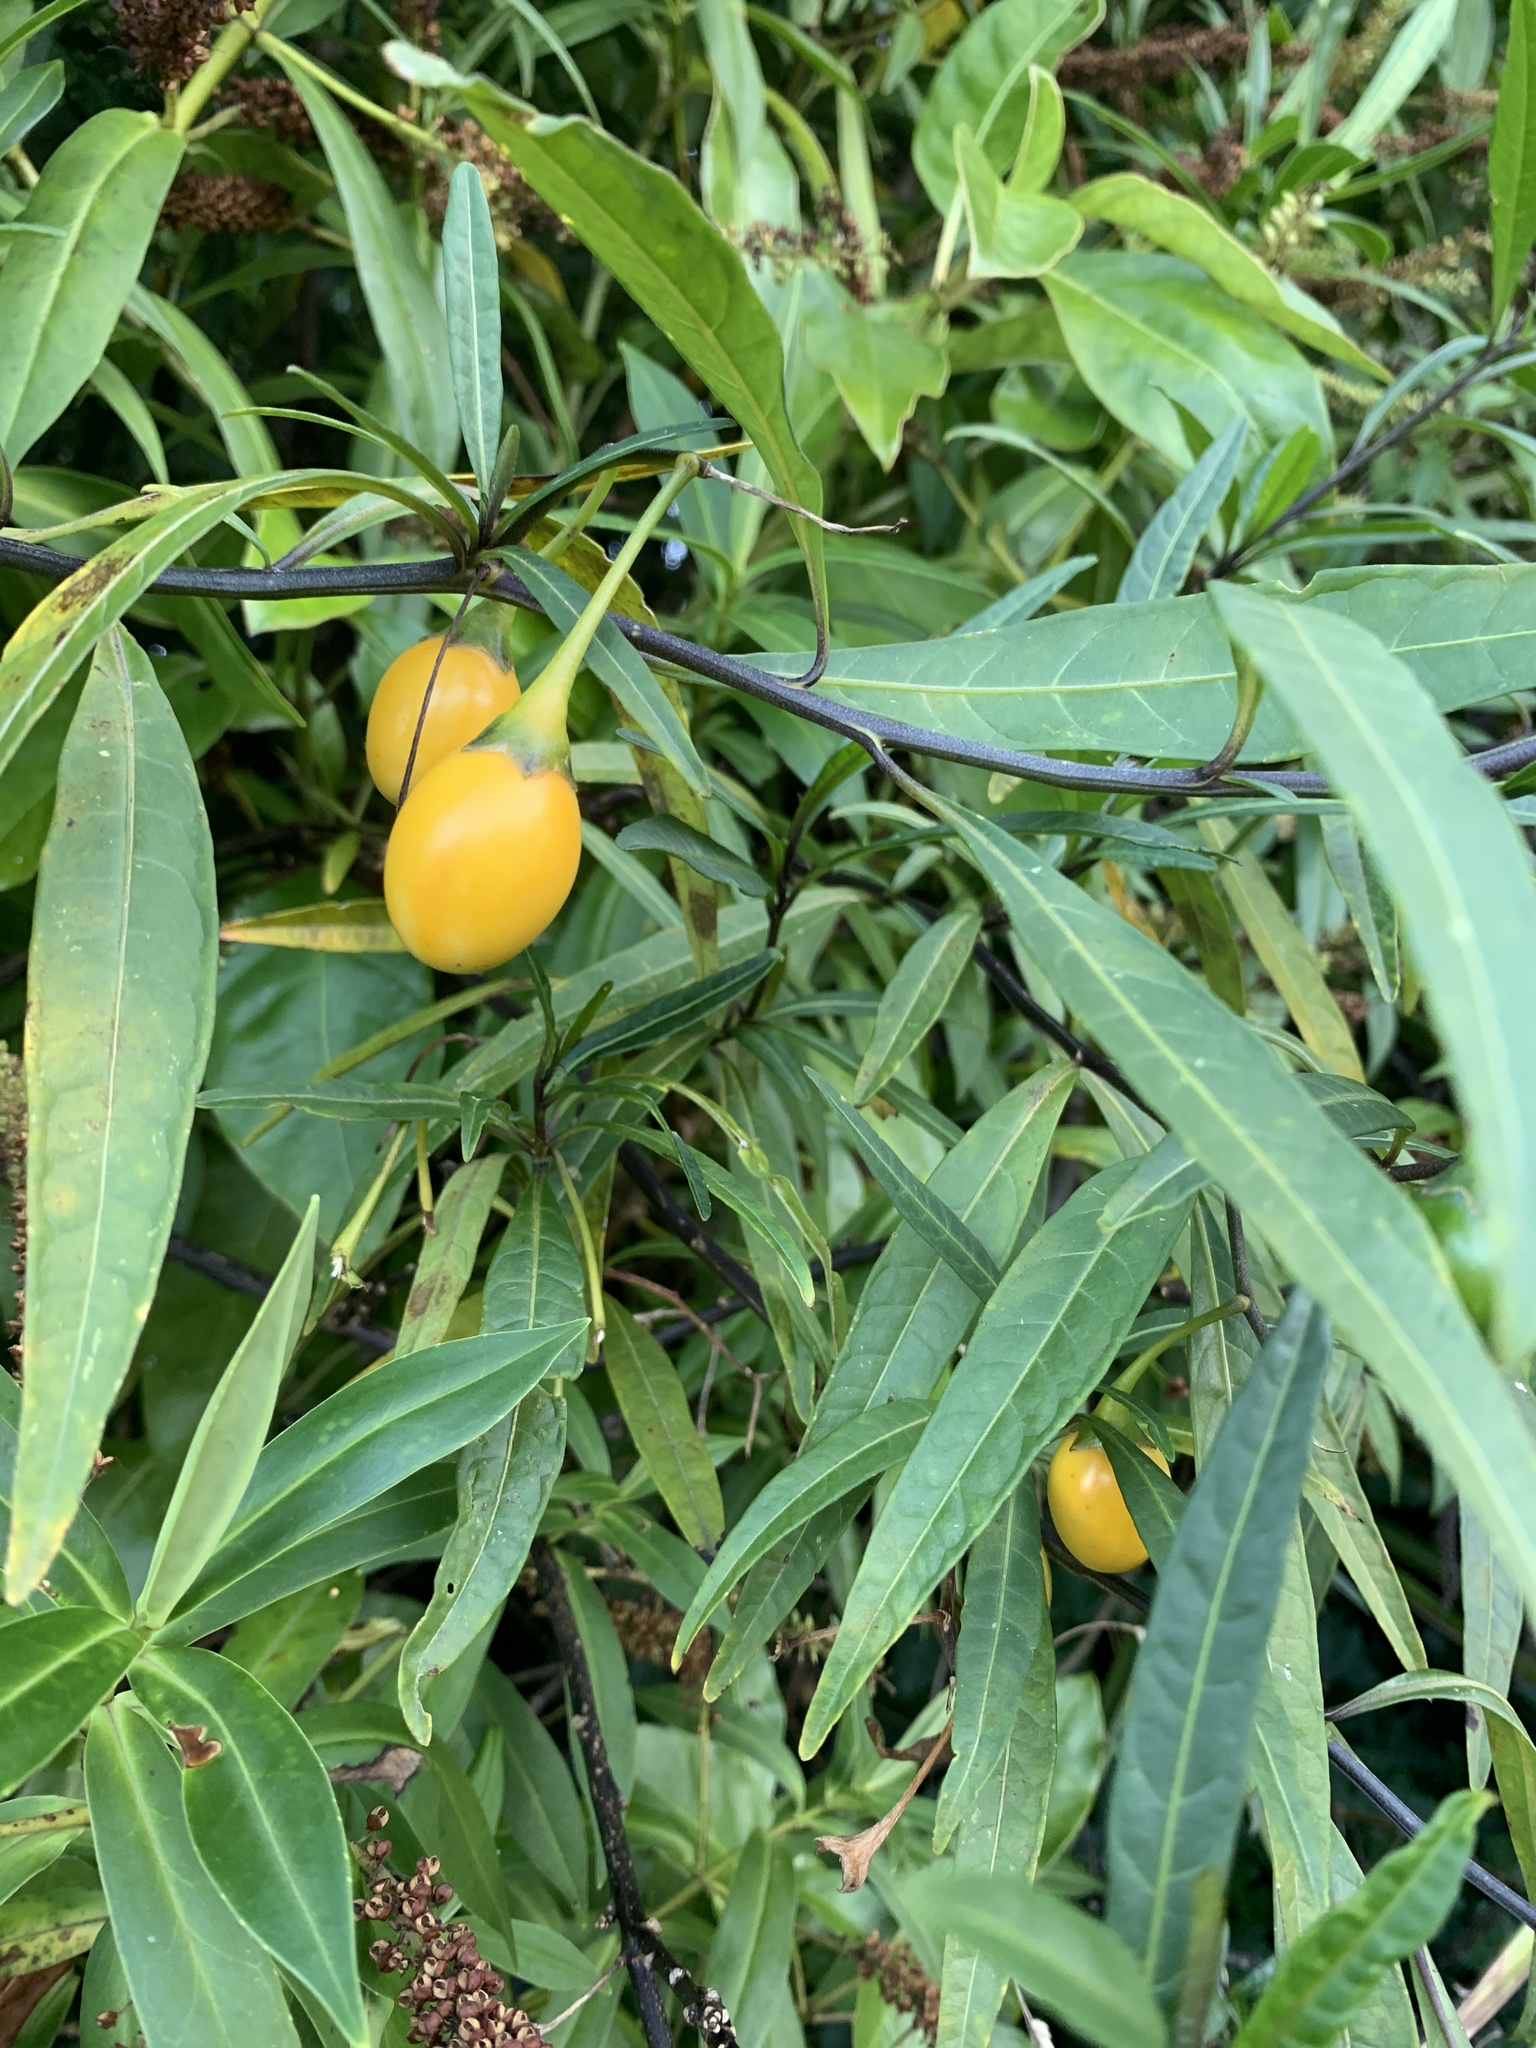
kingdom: Plantae
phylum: Tracheophyta
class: Magnoliopsida
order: Solanales
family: Solanaceae
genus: Solanum
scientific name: Solanum laciniatum
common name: Kangaroo-apple
